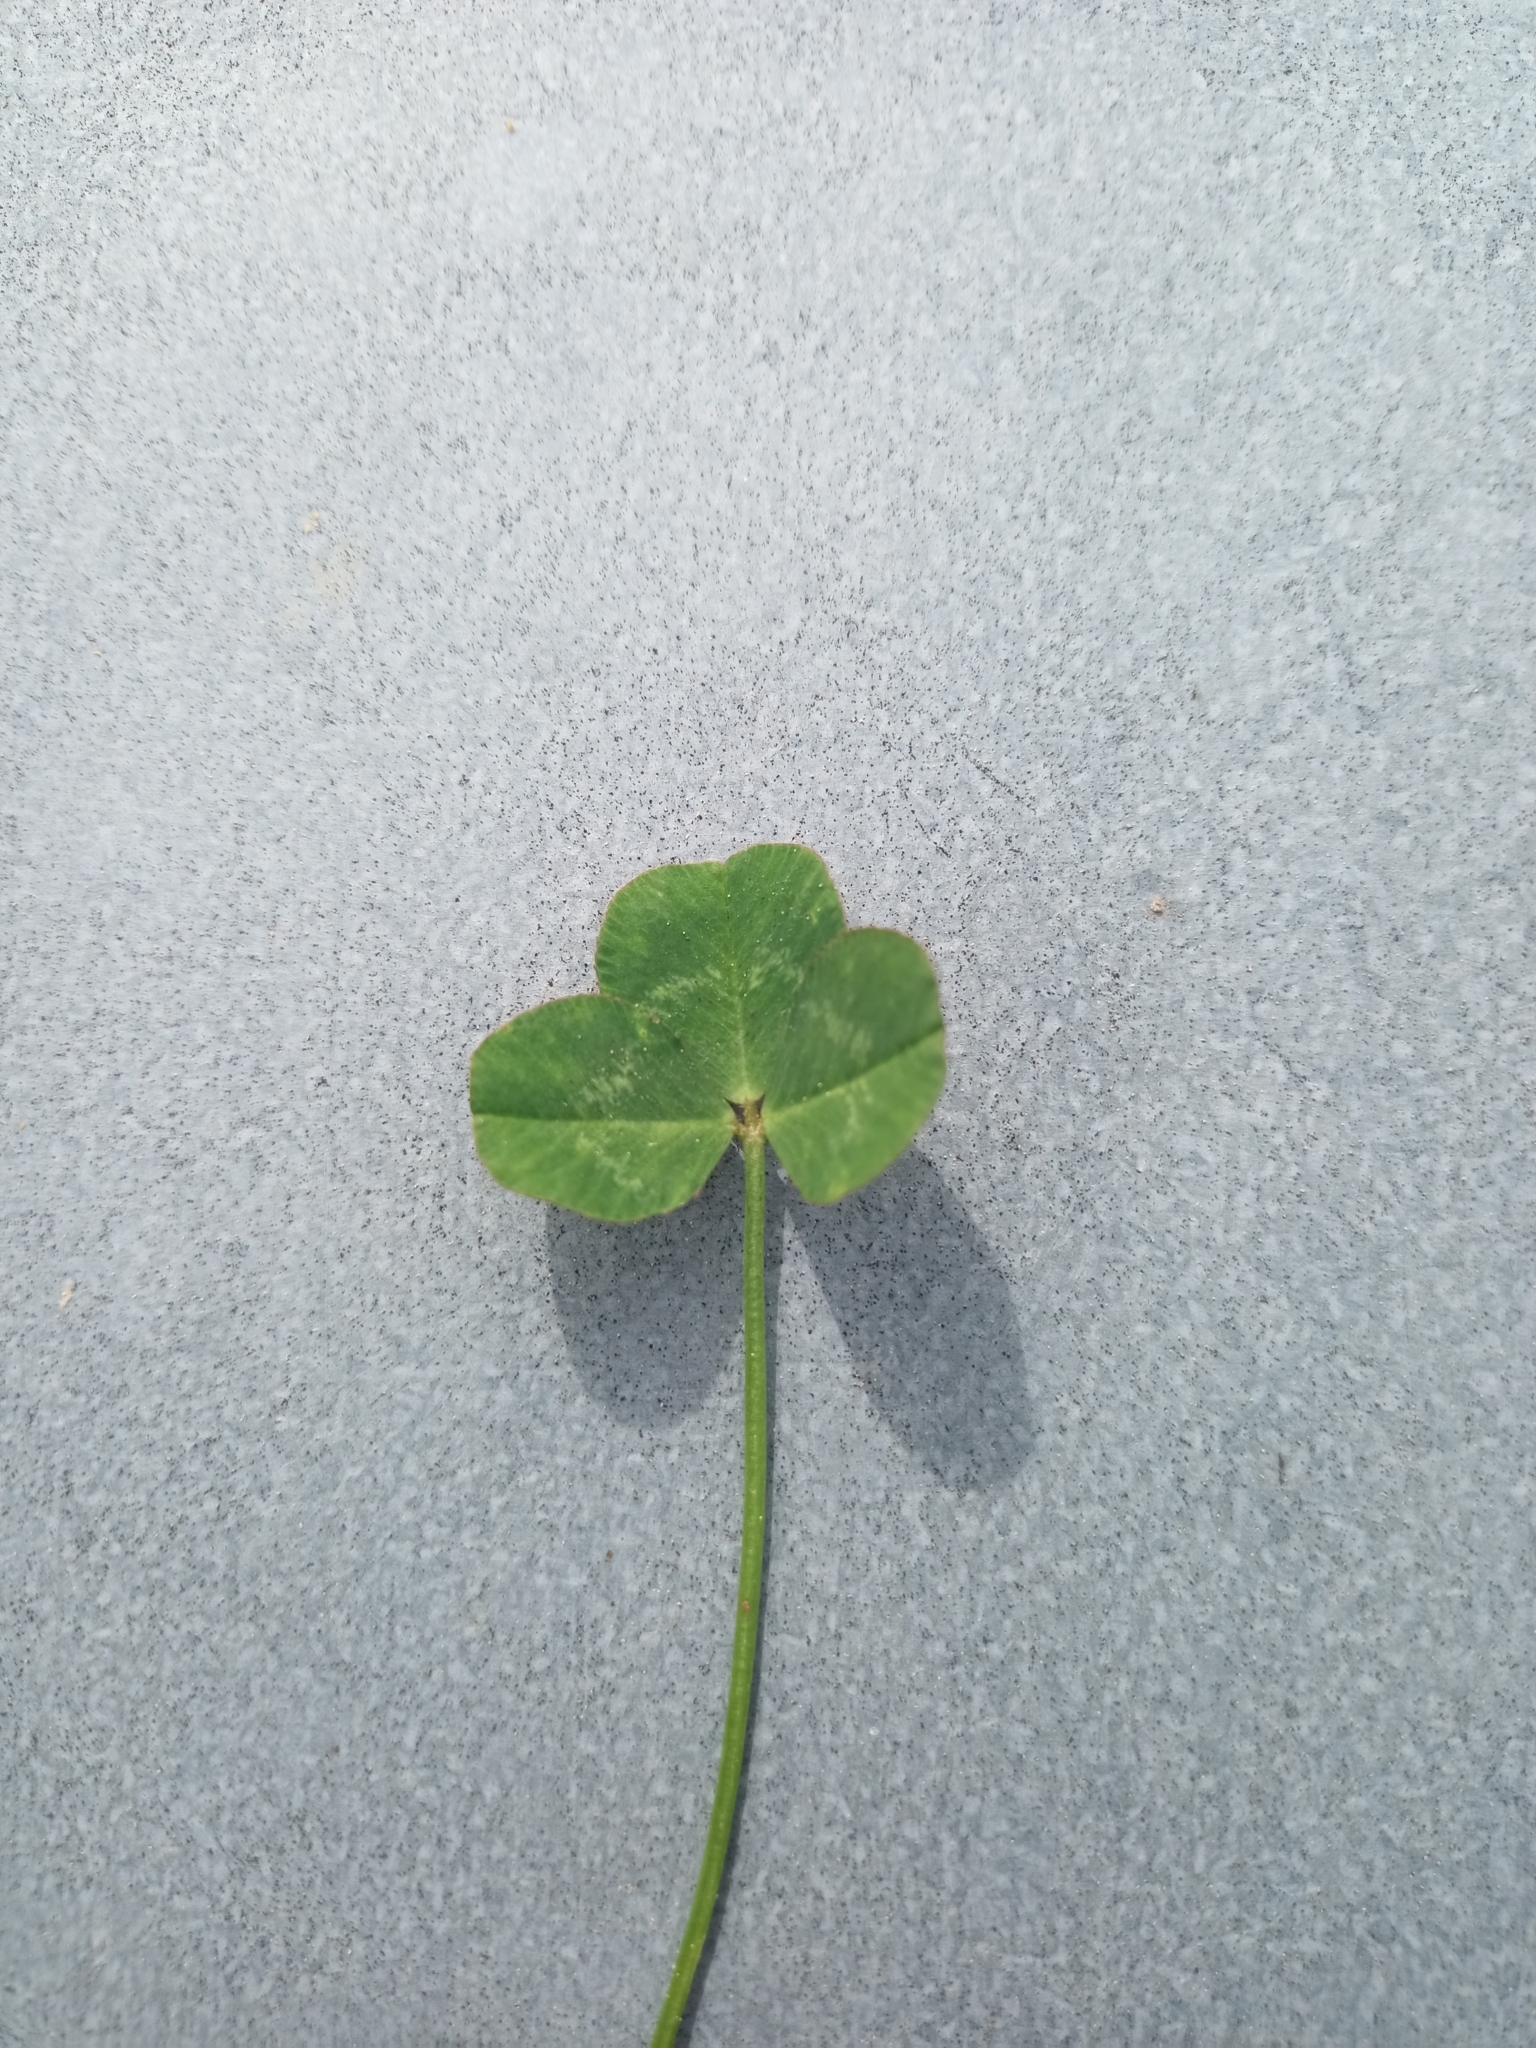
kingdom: Plantae
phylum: Tracheophyta
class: Magnoliopsida
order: Fabales
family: Fabaceae
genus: Trifolium
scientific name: Trifolium repens
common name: White clover
